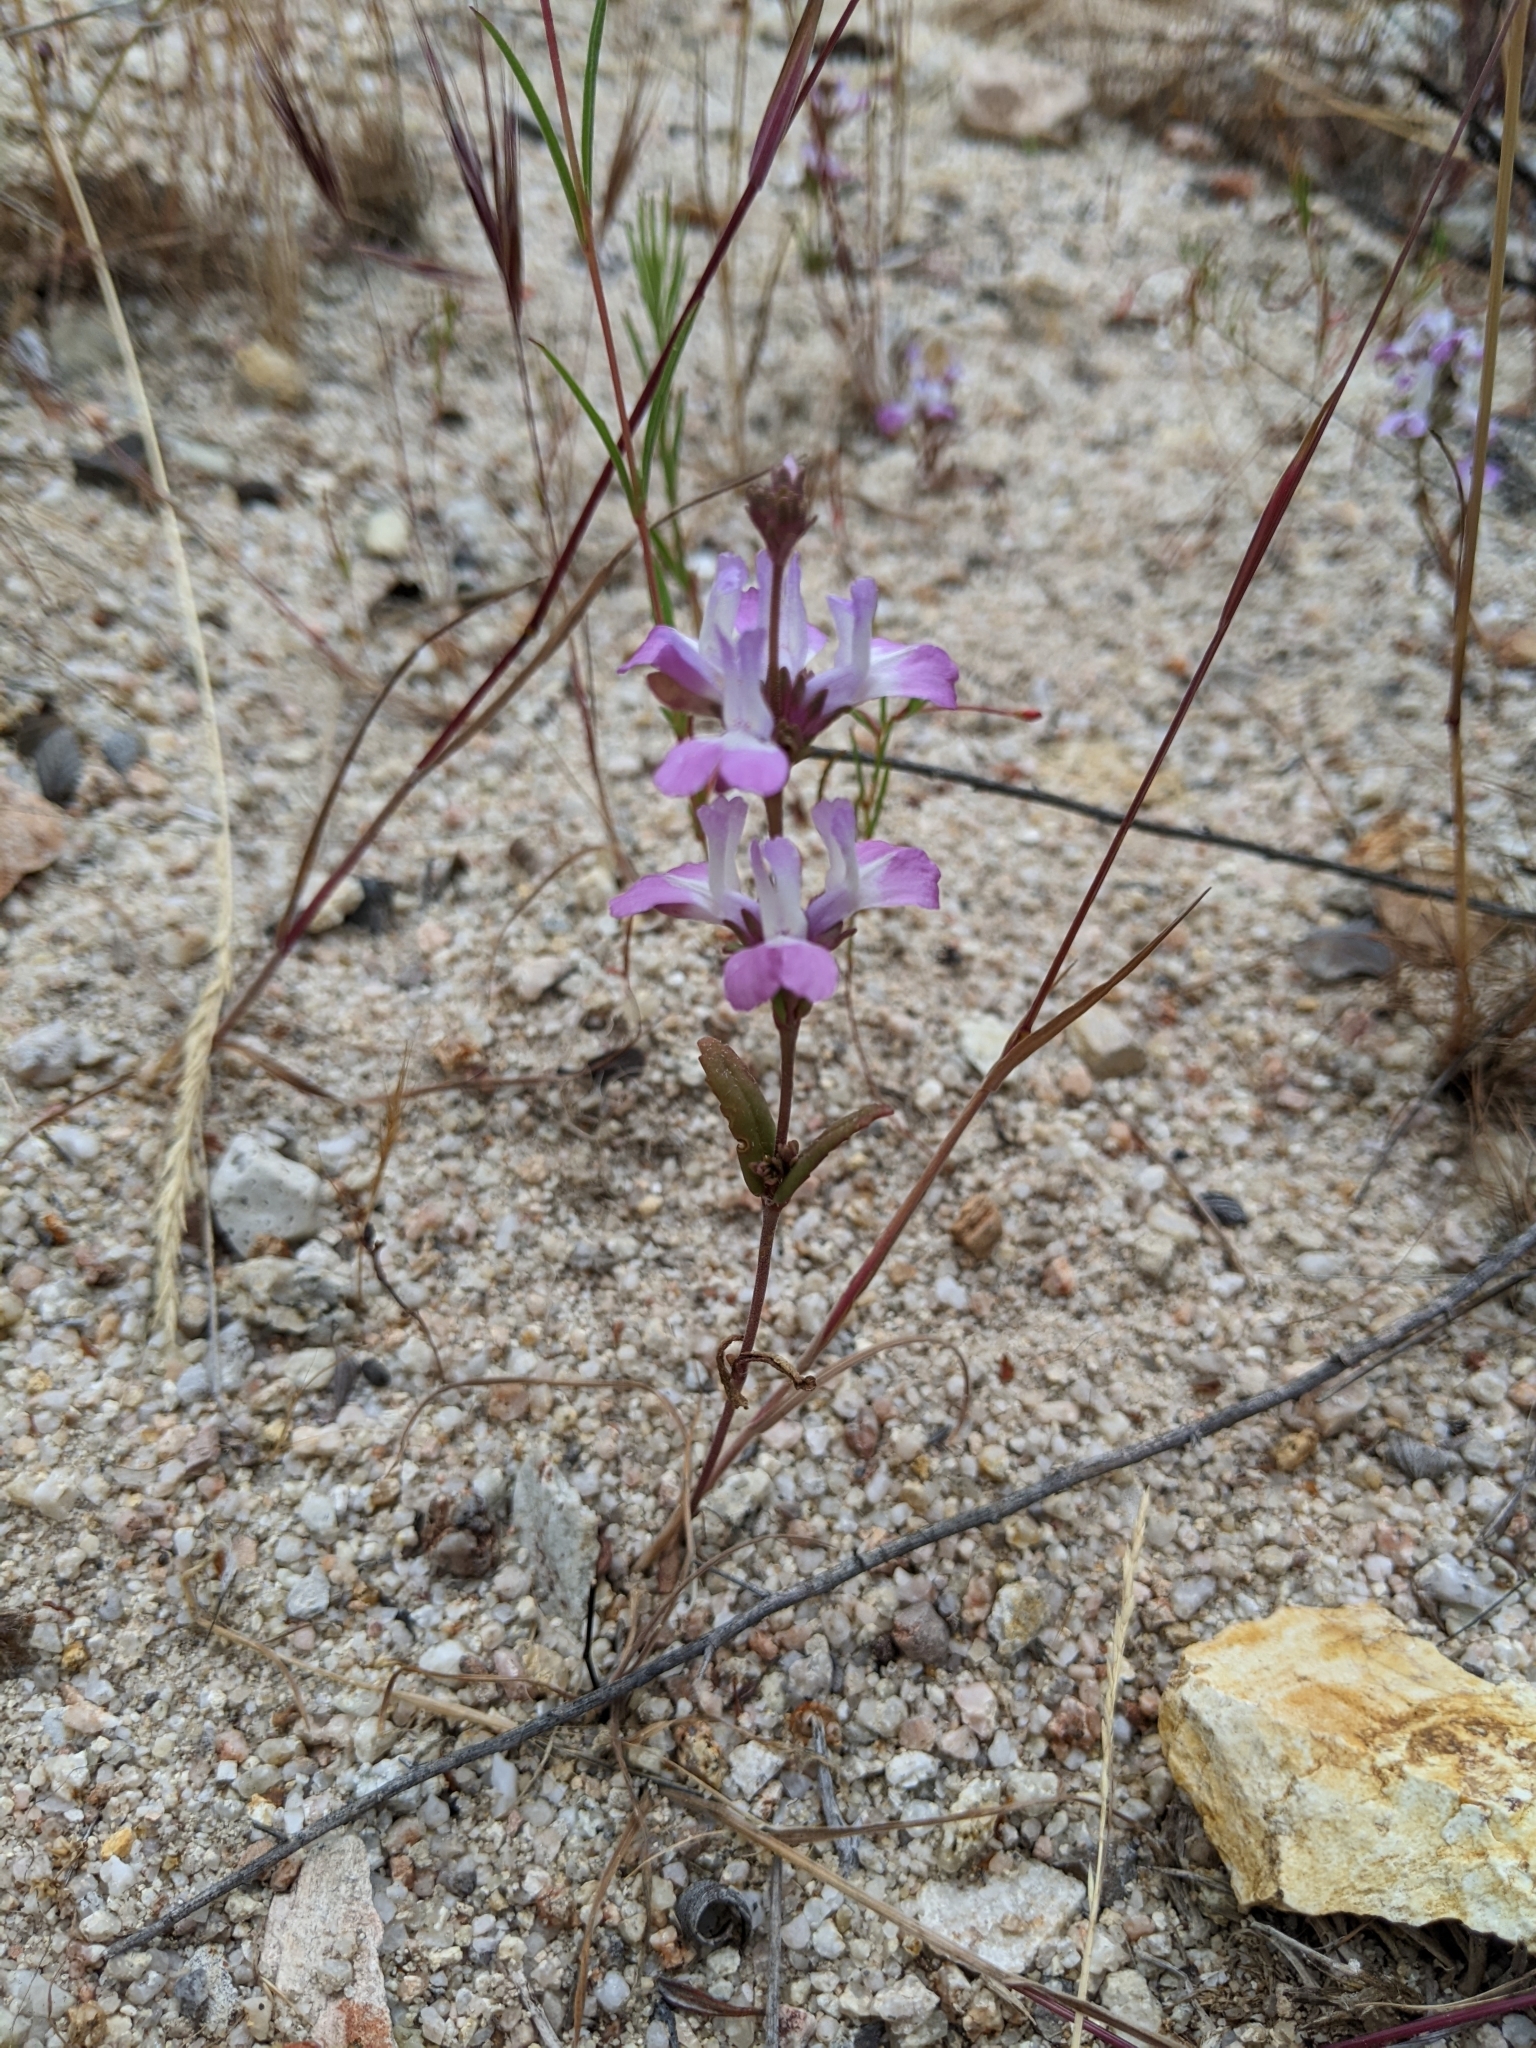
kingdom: Plantae
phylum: Tracheophyta
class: Magnoliopsida
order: Lamiales
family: Plantaginaceae
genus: Collinsia
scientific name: Collinsia bartsiifolia
